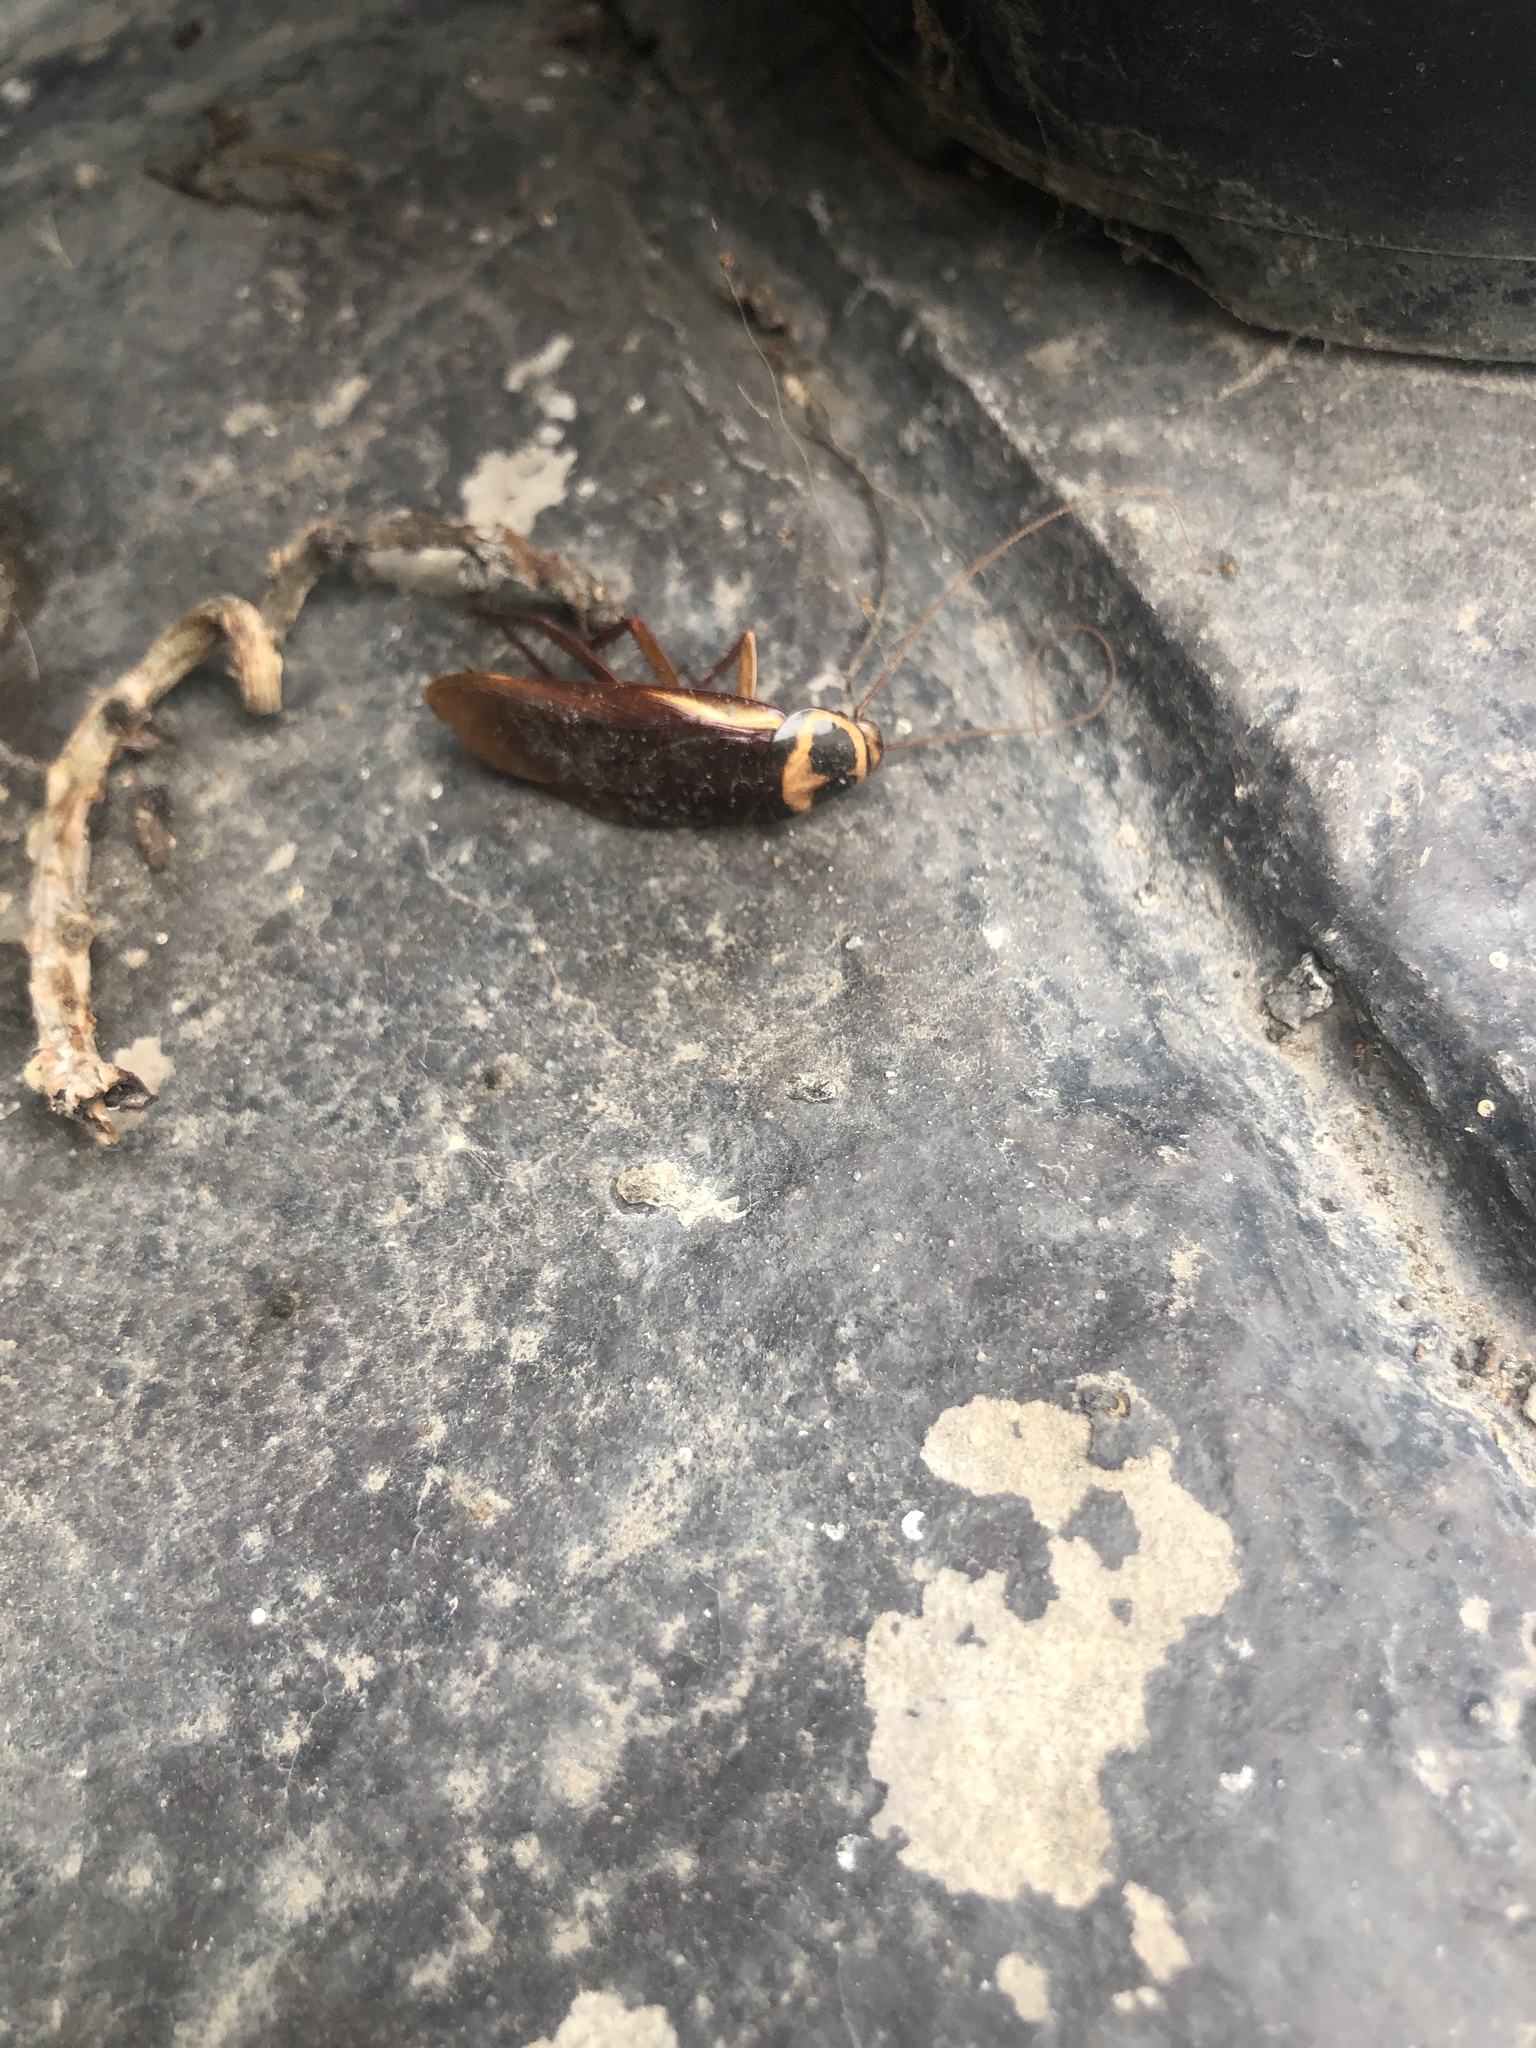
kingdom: Animalia
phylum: Arthropoda
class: Insecta
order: Blattodea
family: Blattidae
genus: Periplaneta
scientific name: Periplaneta australasiae
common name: Australian cockroach
